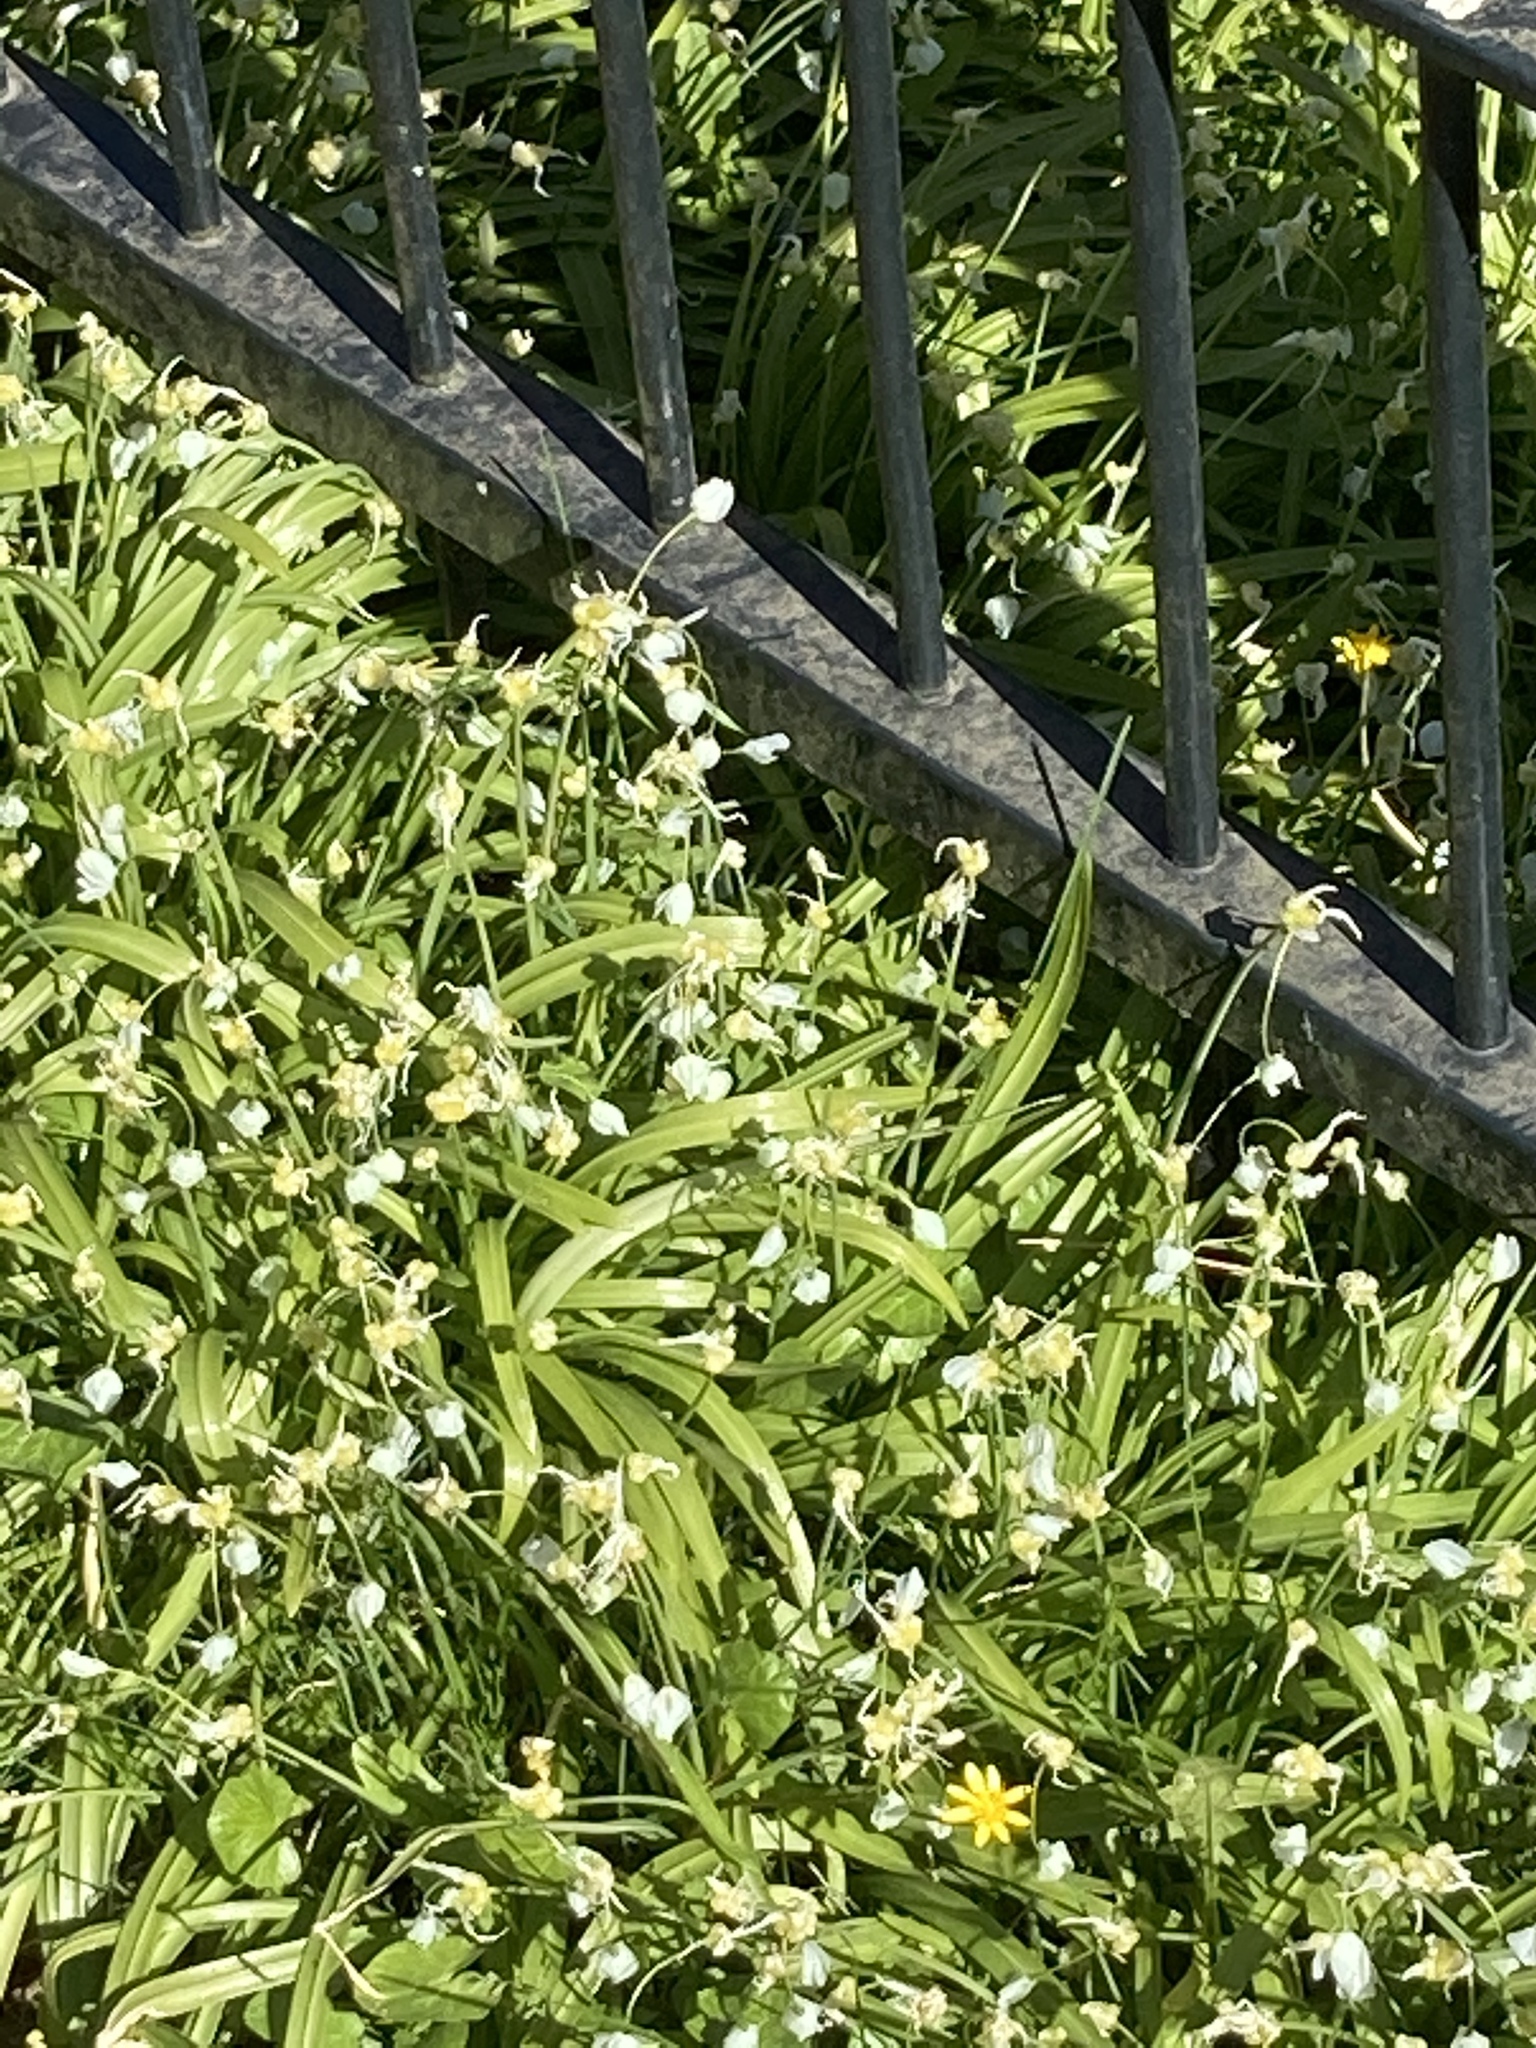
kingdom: Plantae
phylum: Tracheophyta
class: Liliopsida
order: Asparagales
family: Amaryllidaceae
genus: Allium
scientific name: Allium paradoxum
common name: Few-flowered garlic
